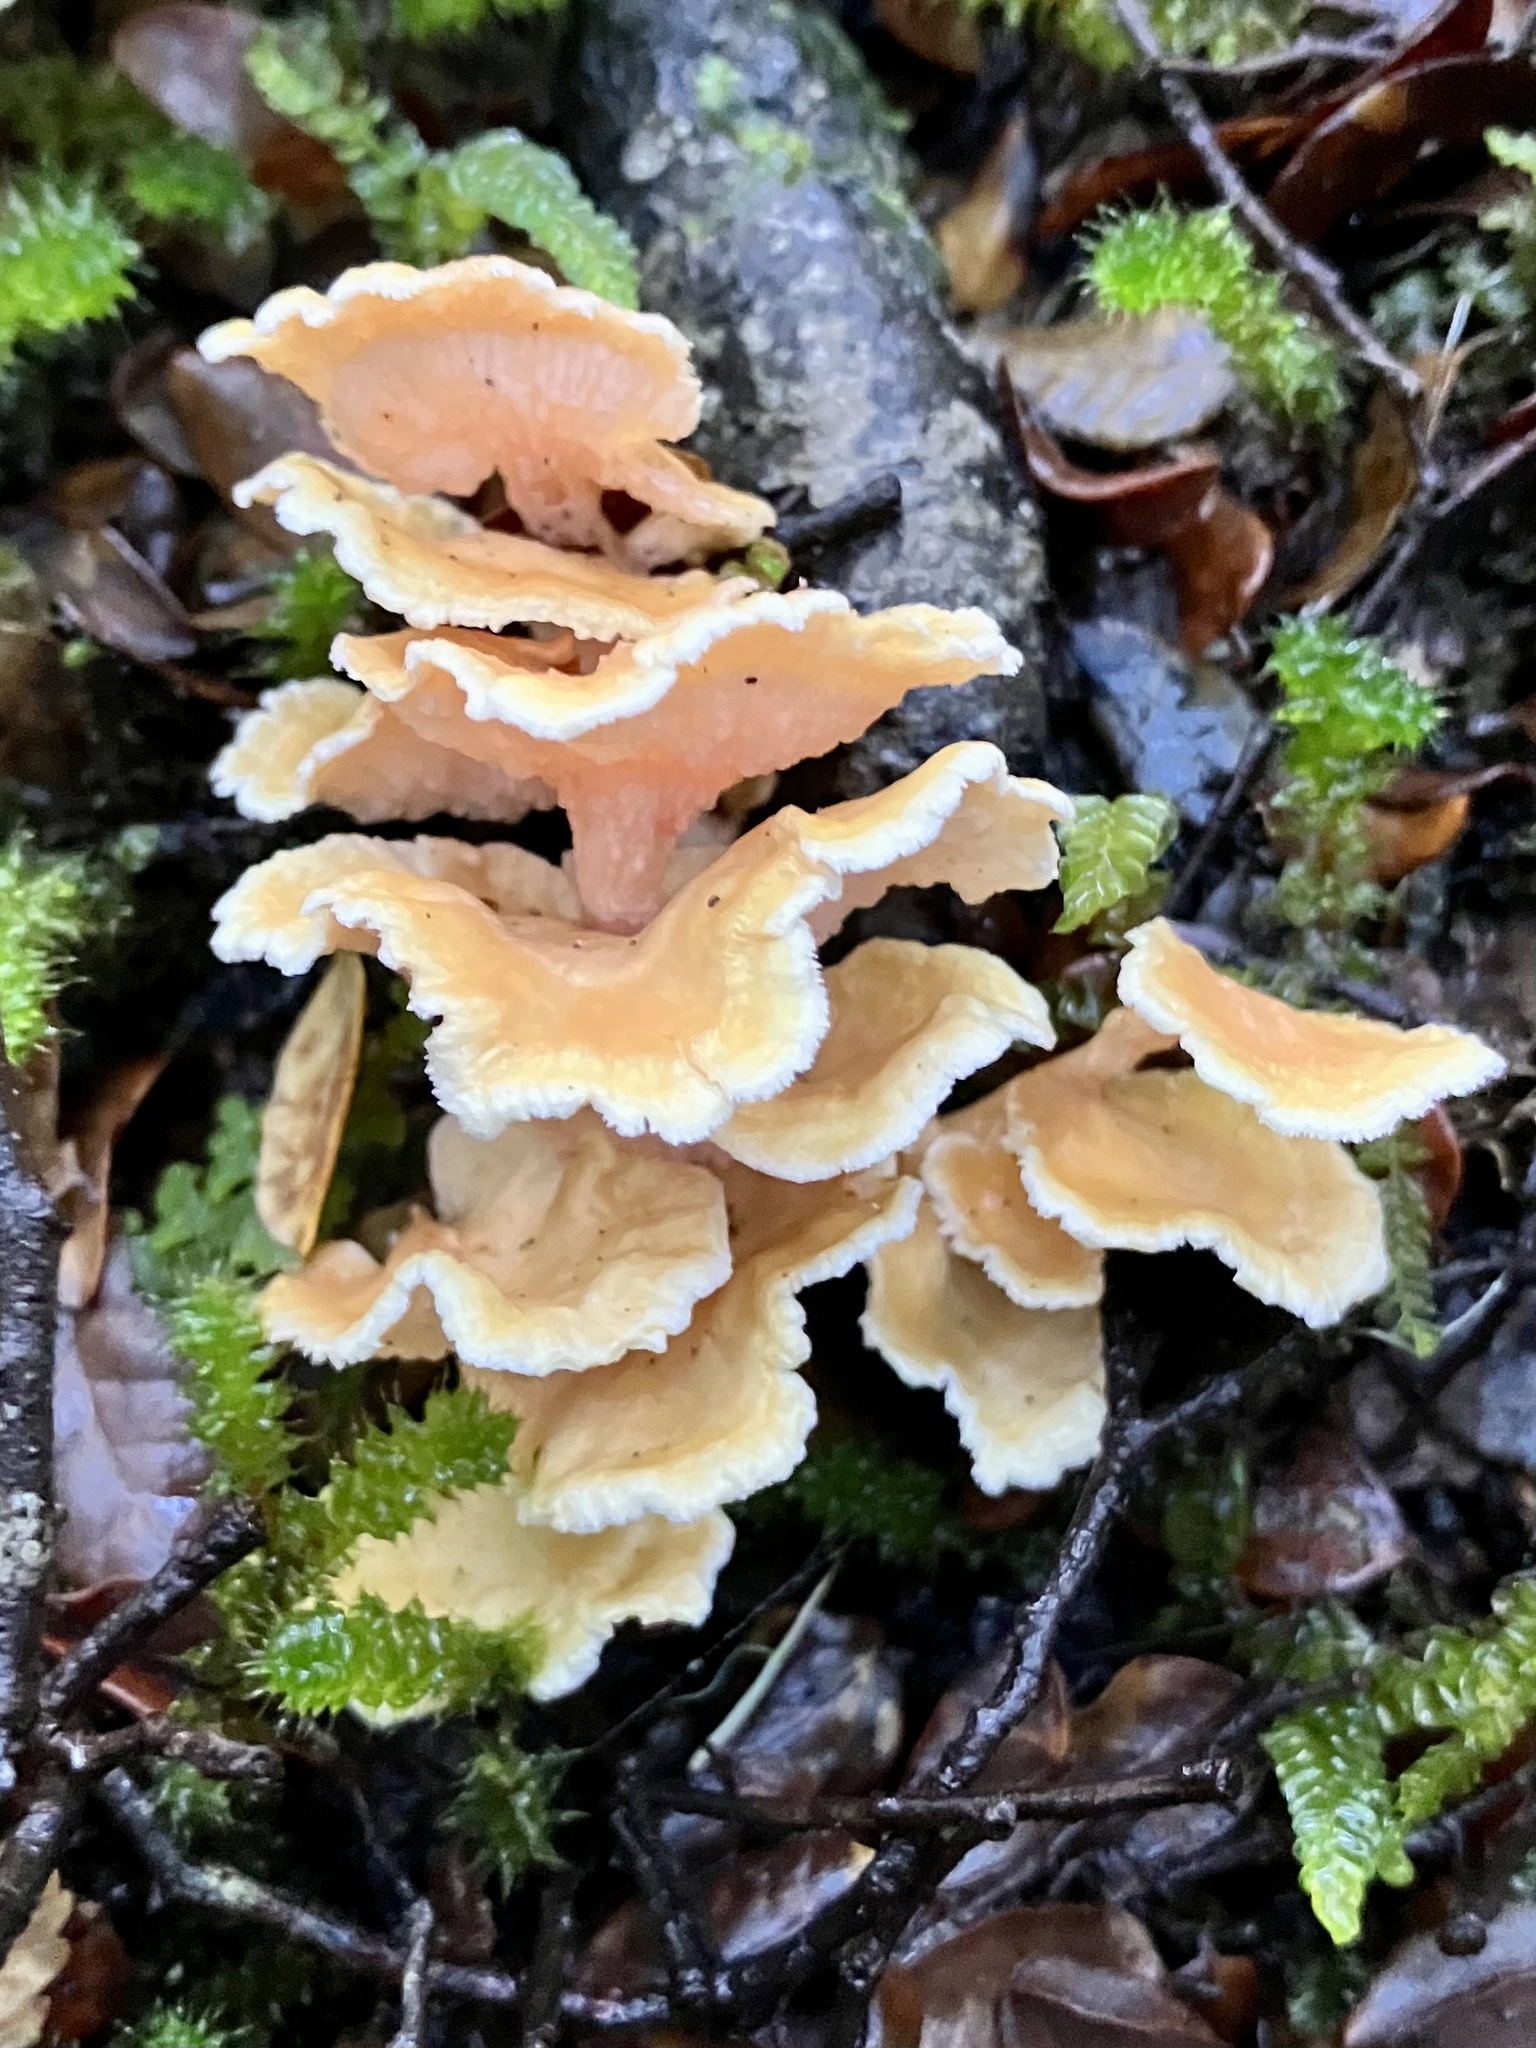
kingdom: Fungi
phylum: Basidiomycota
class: Agaricomycetes
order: Amylocorticiales
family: Amylocorticiaceae
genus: Podoserpula
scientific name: Podoserpula pusio
